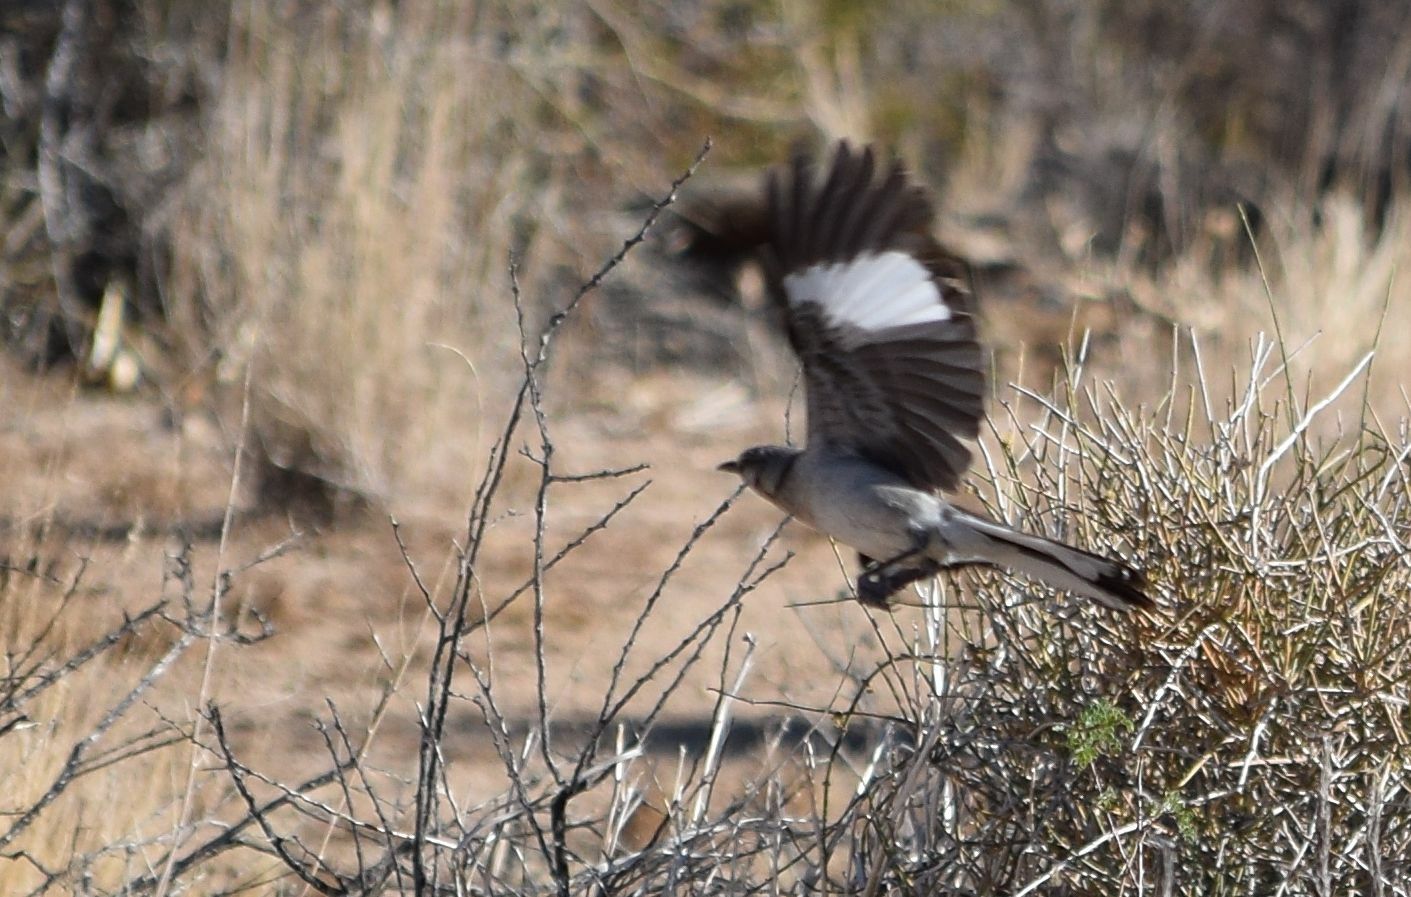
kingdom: Animalia
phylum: Chordata
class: Aves
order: Passeriformes
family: Mimidae
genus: Mimus
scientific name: Mimus polyglottos
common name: Northern mockingbird
